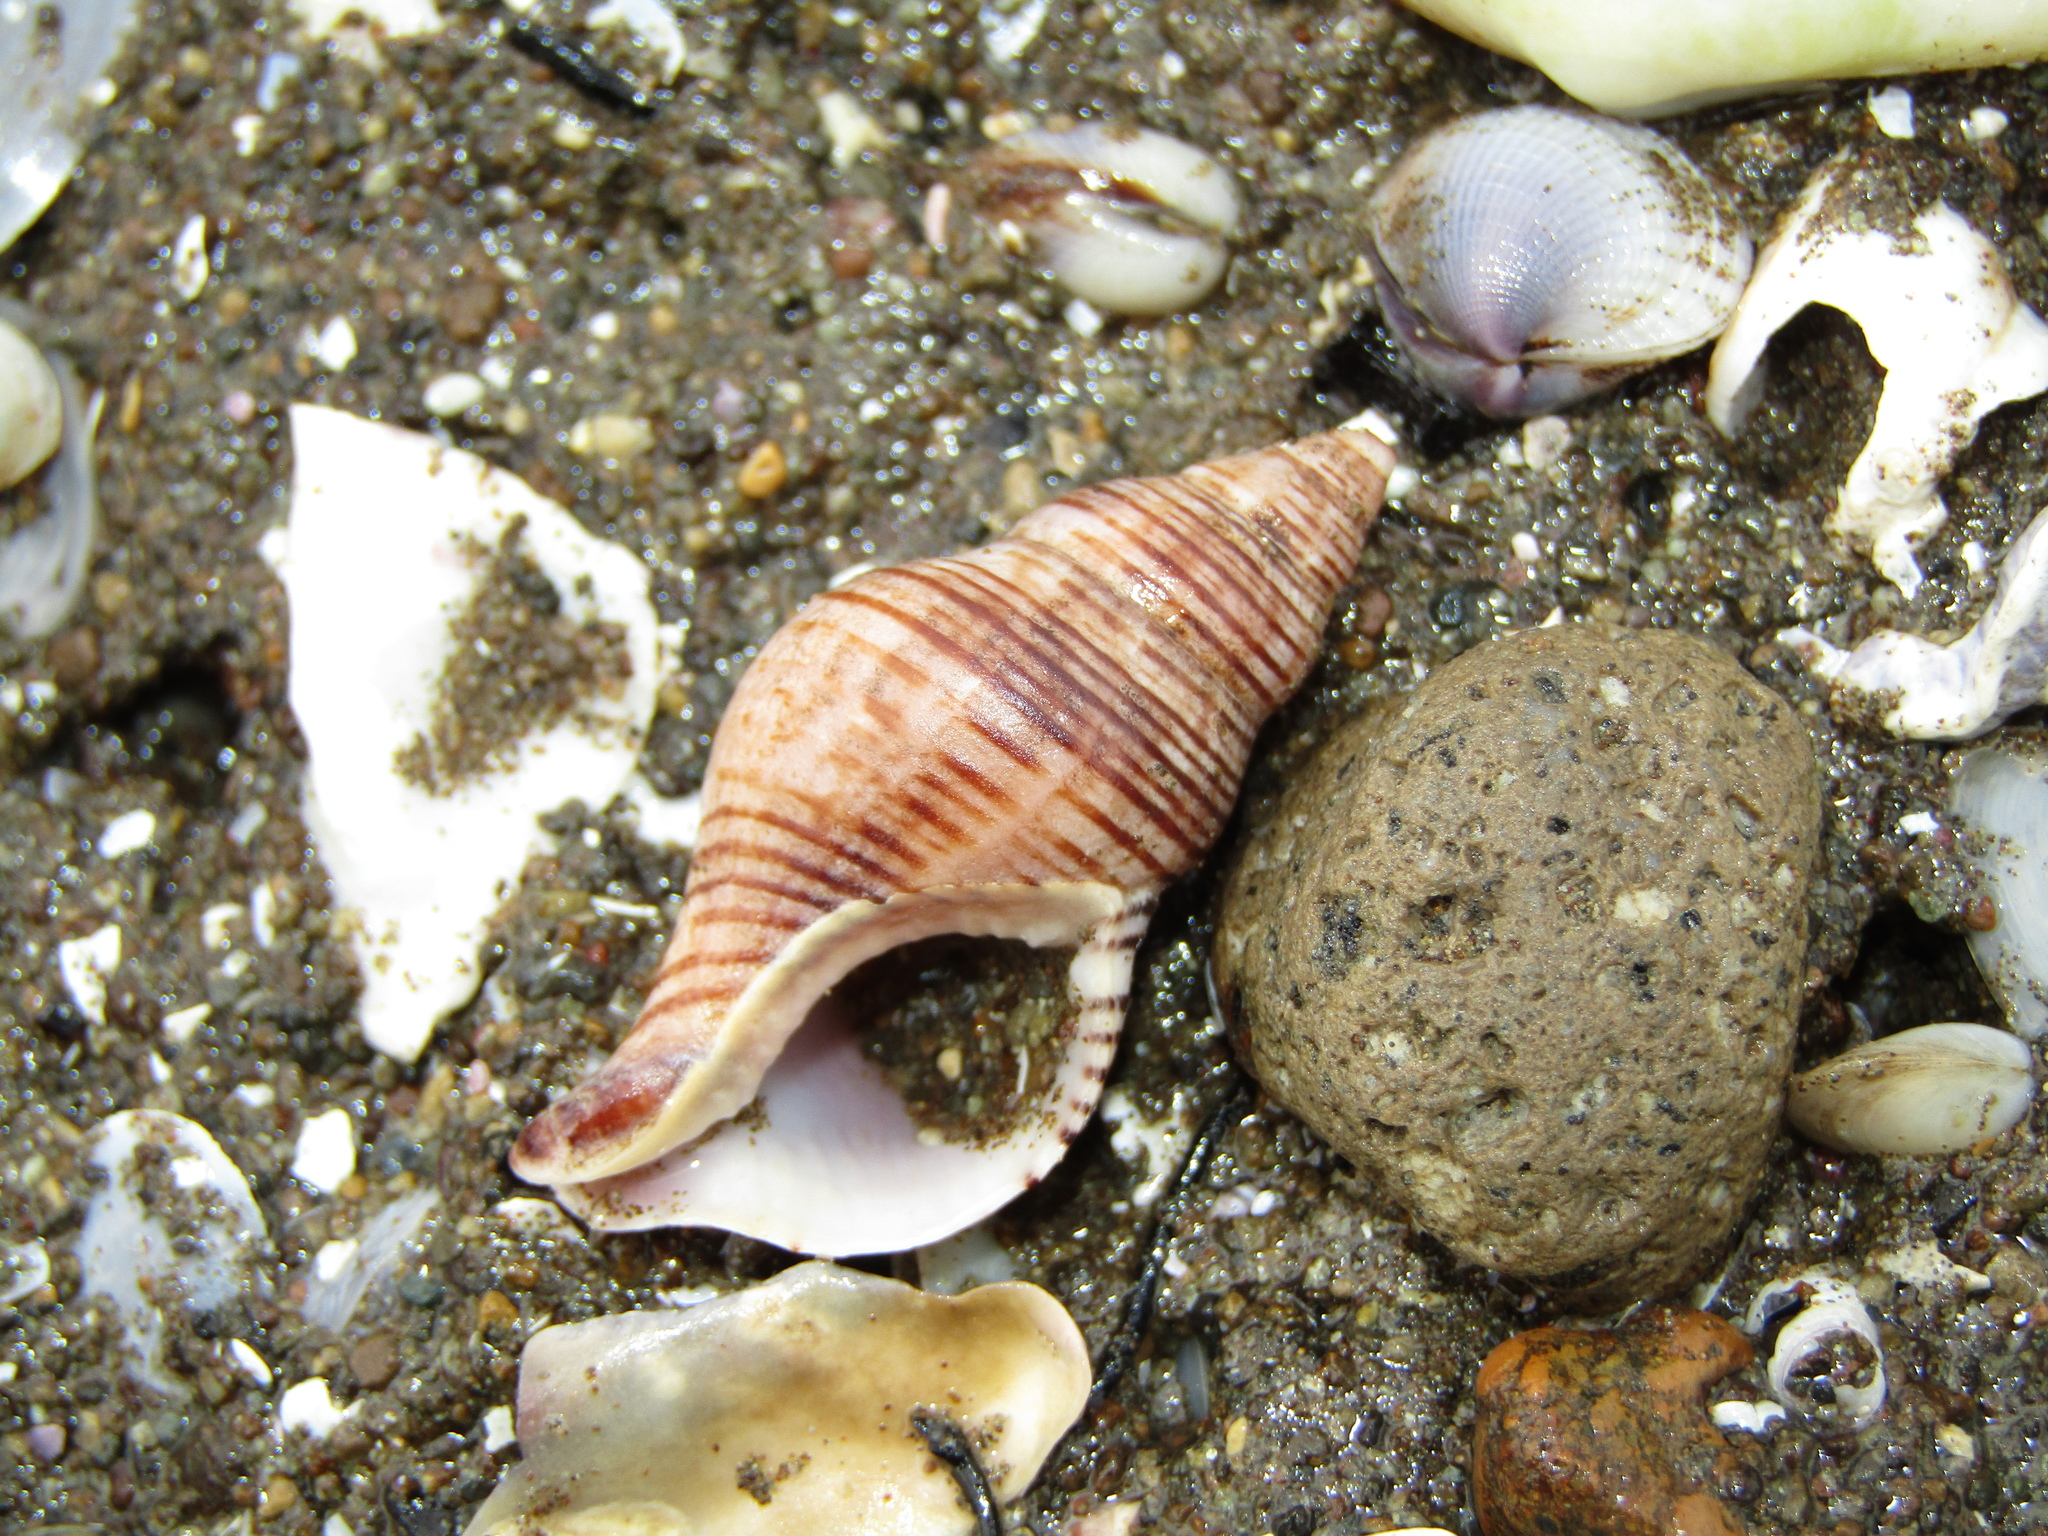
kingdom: Animalia
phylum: Mollusca
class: Gastropoda
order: Neogastropoda
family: Tudiclidae
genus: Buccinulum
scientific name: Buccinulum linea
